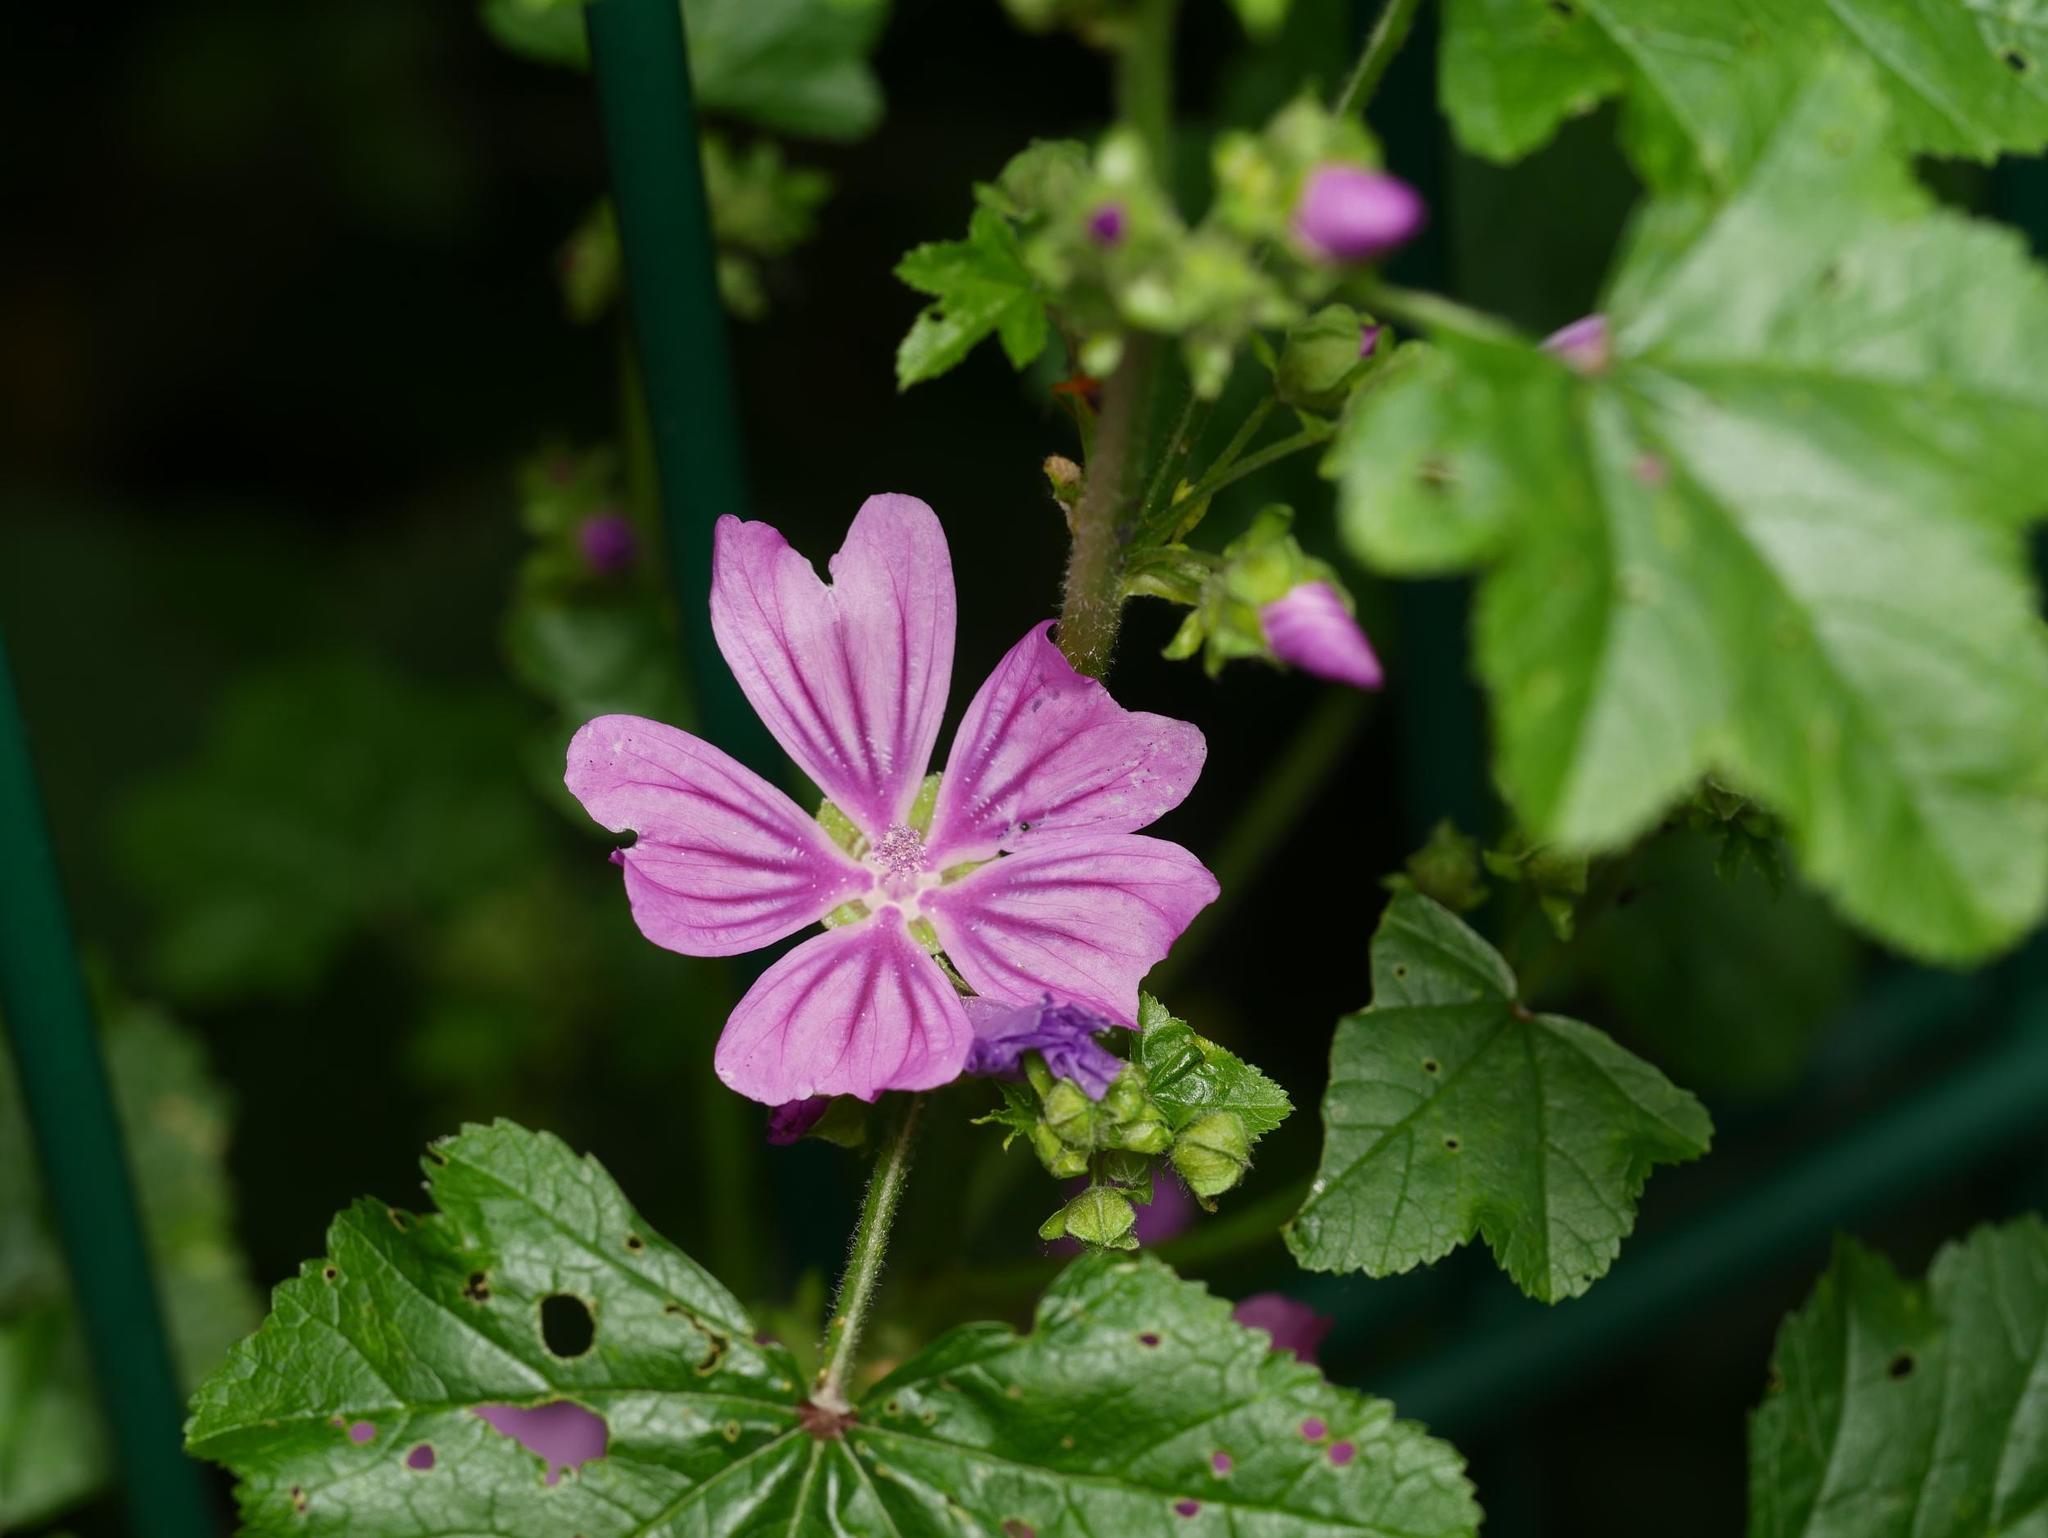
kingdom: Plantae
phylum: Tracheophyta
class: Magnoliopsida
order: Malvales
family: Malvaceae
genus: Malva
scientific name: Malva sylvestris
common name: Common mallow
